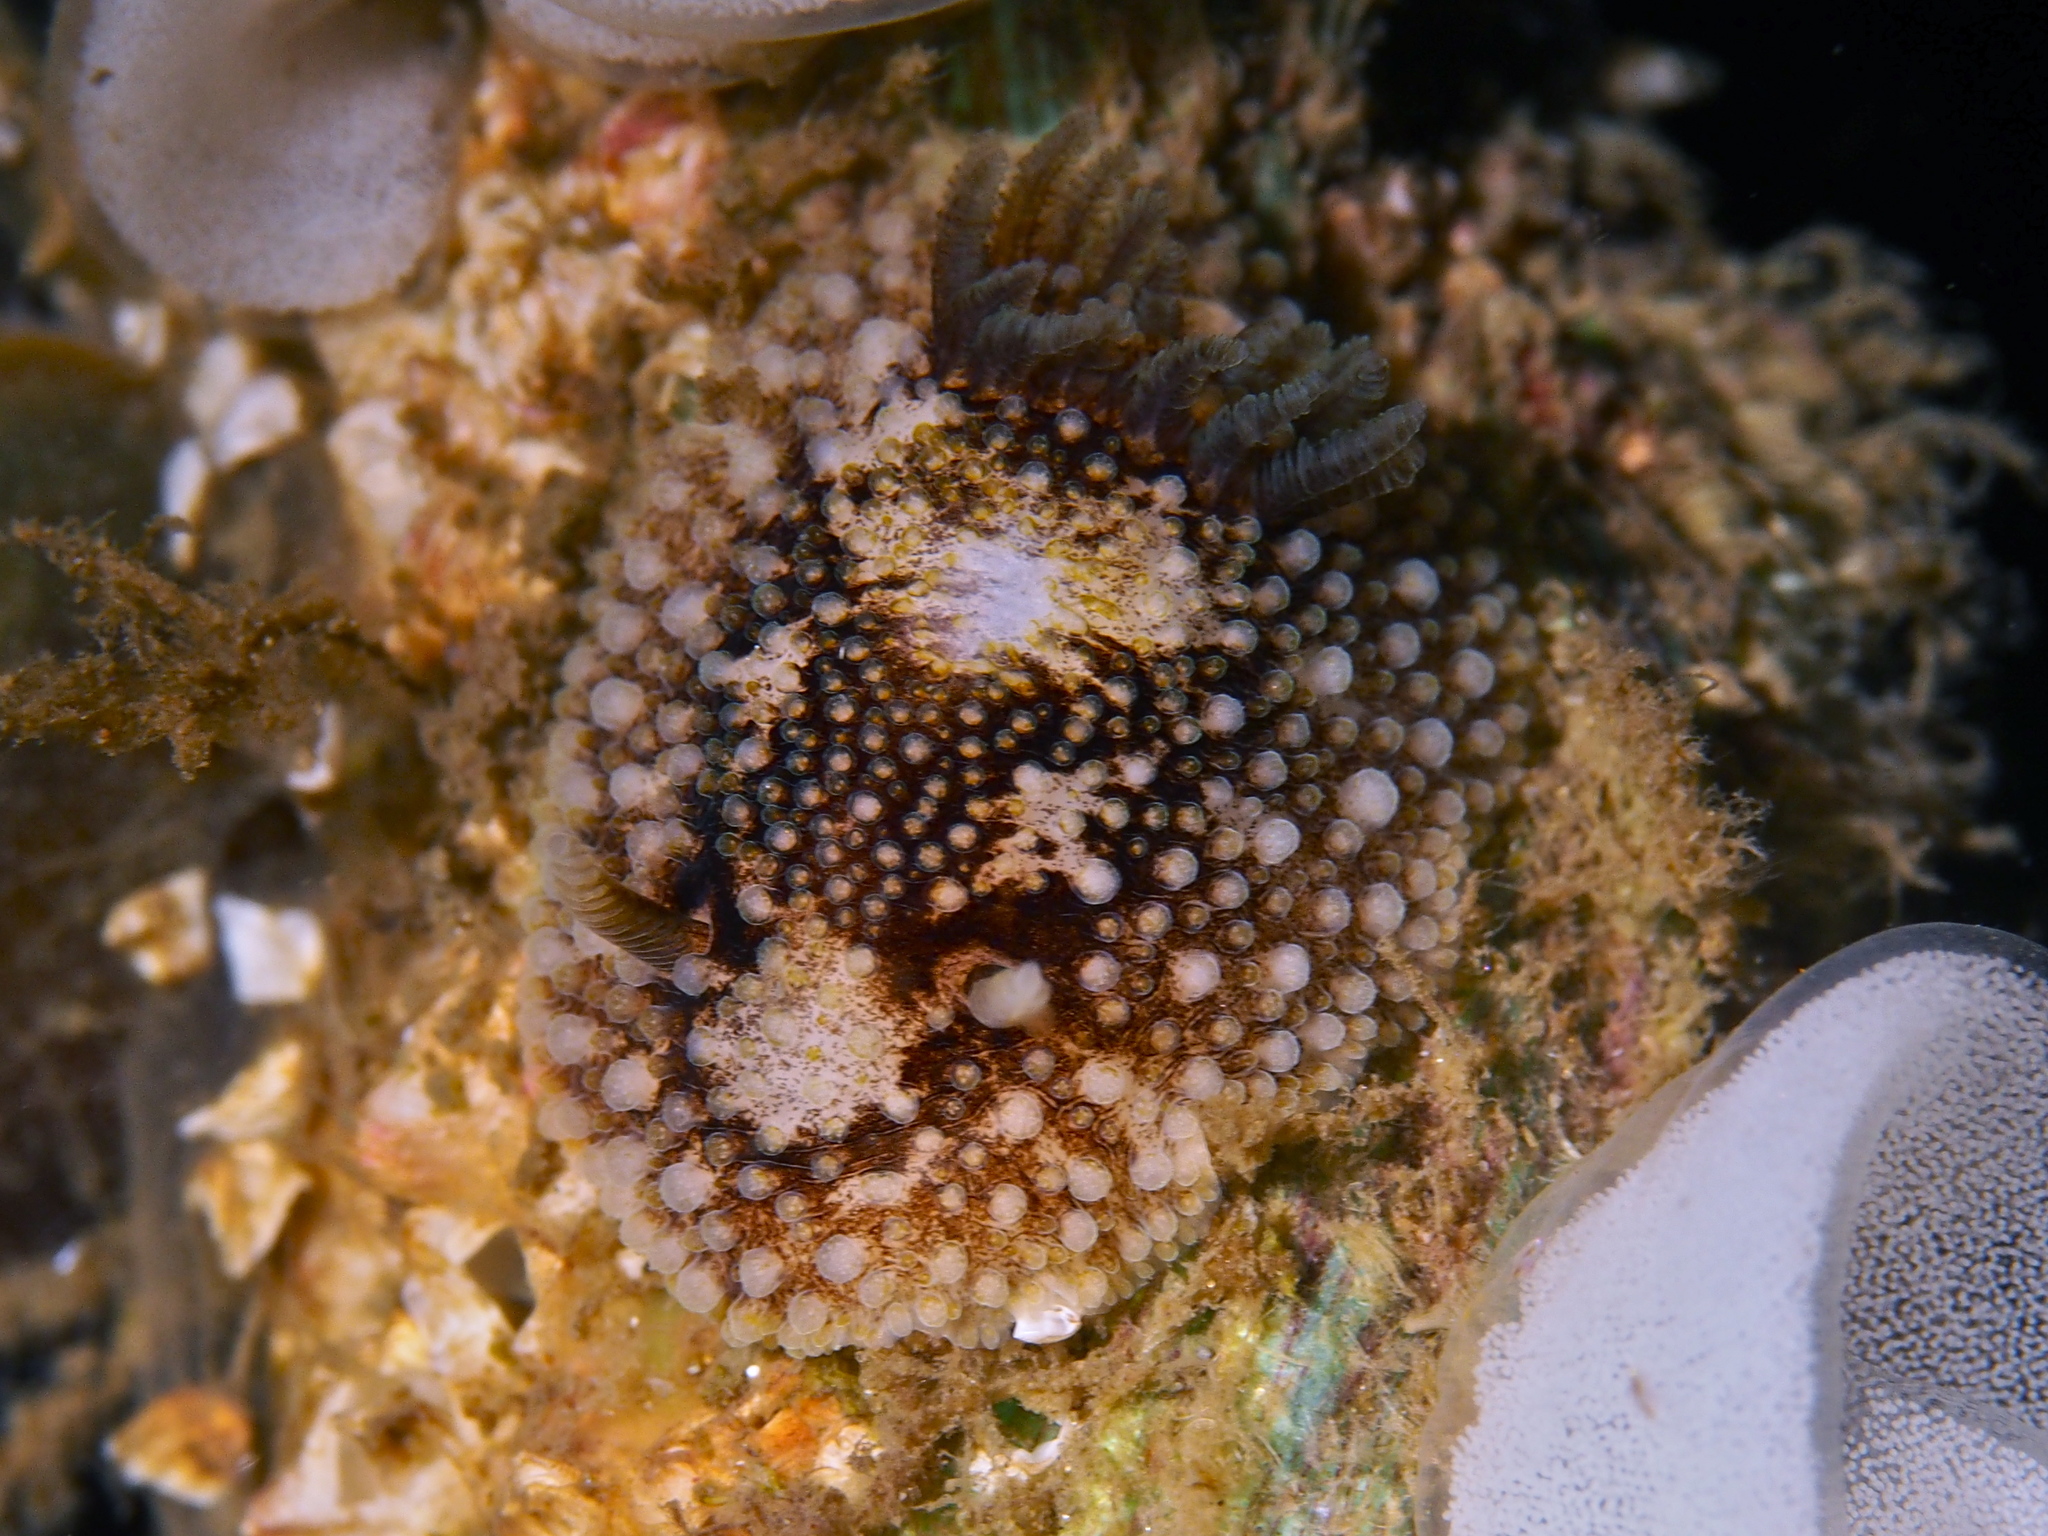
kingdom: Animalia
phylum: Mollusca
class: Gastropoda
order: Nudibranchia
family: Onchidorididae
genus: Onchidoris
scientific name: Onchidoris bilamellata
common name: Barnacle-eating onchidoris
